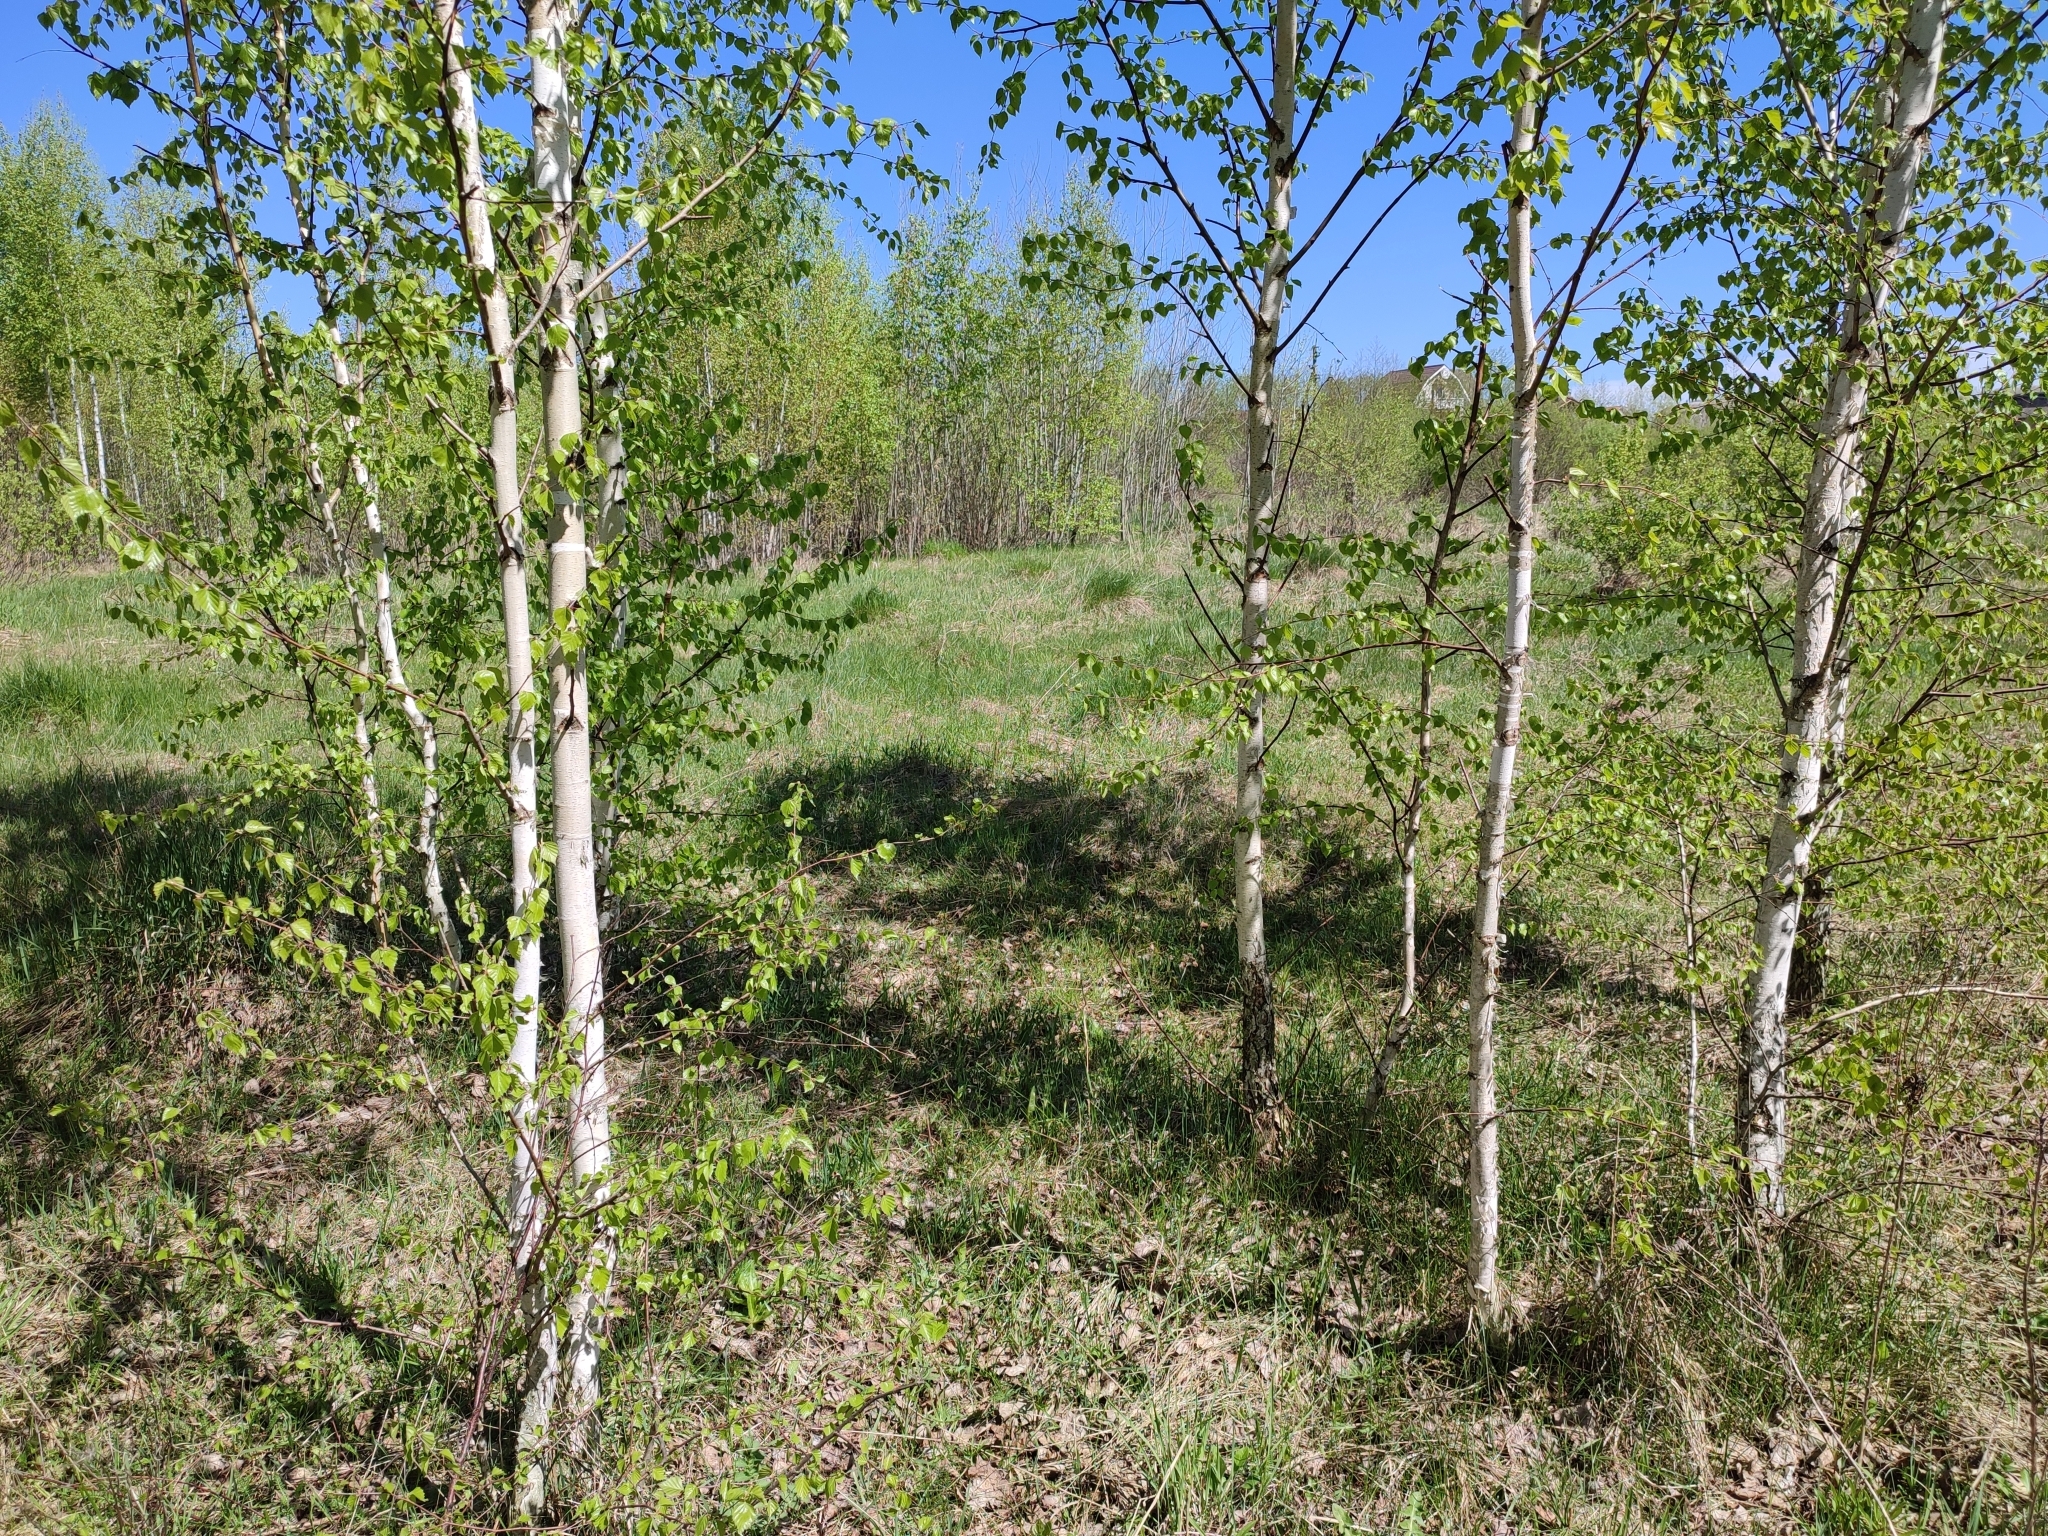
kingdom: Plantae
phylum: Tracheophyta
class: Magnoliopsida
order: Fagales
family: Betulaceae
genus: Betula
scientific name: Betula pendula
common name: Silver birch
